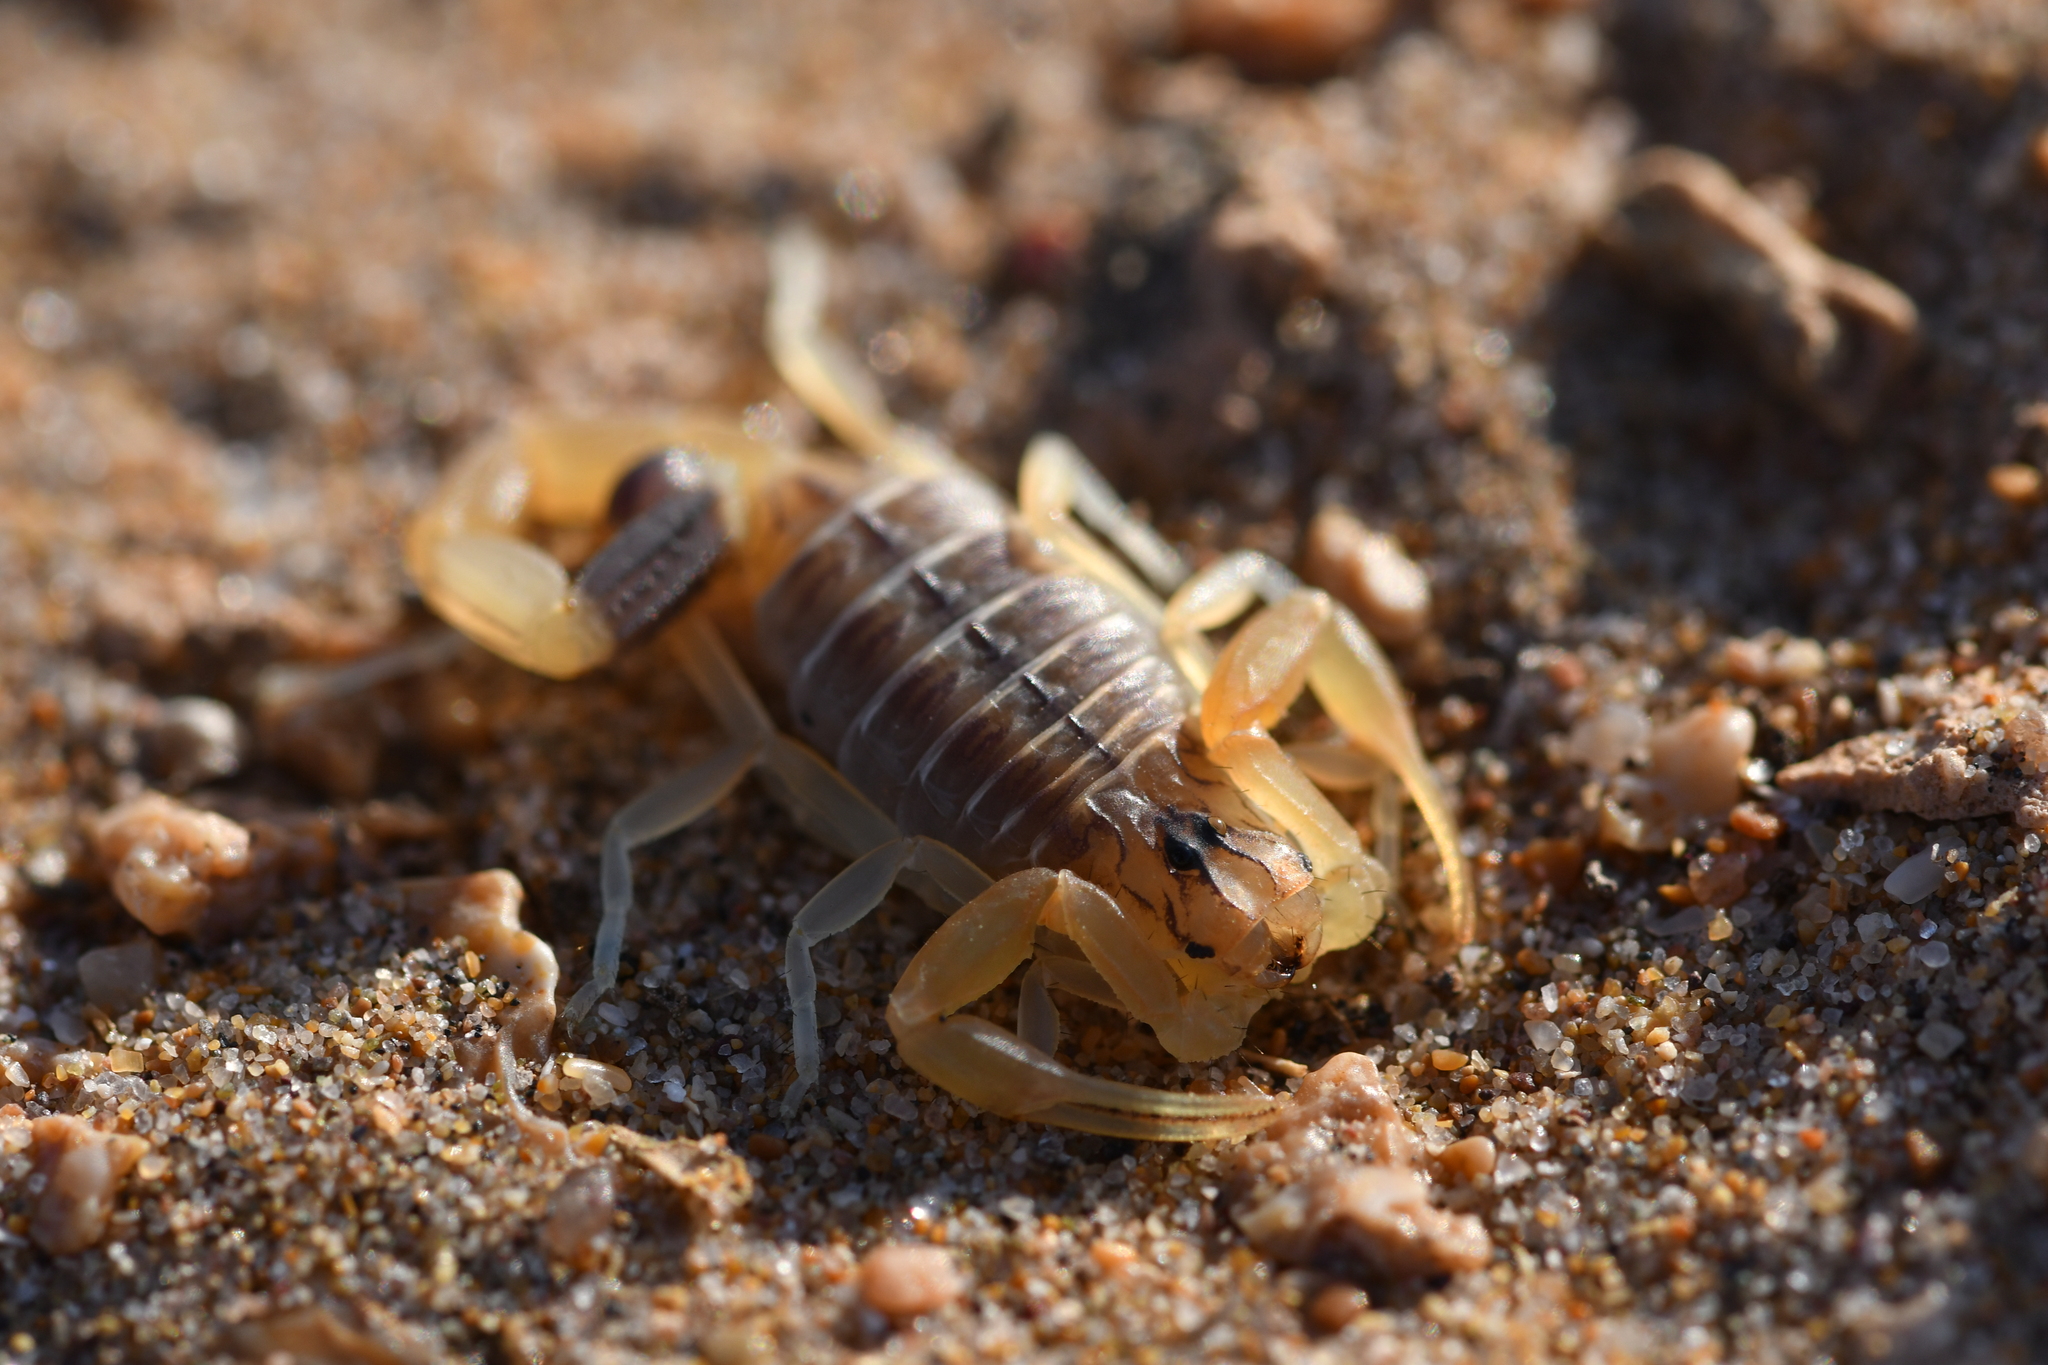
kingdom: Animalia
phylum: Arthropoda
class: Arachnida
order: Scorpiones
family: Buthidae
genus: Buthus
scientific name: Buthus bonito
